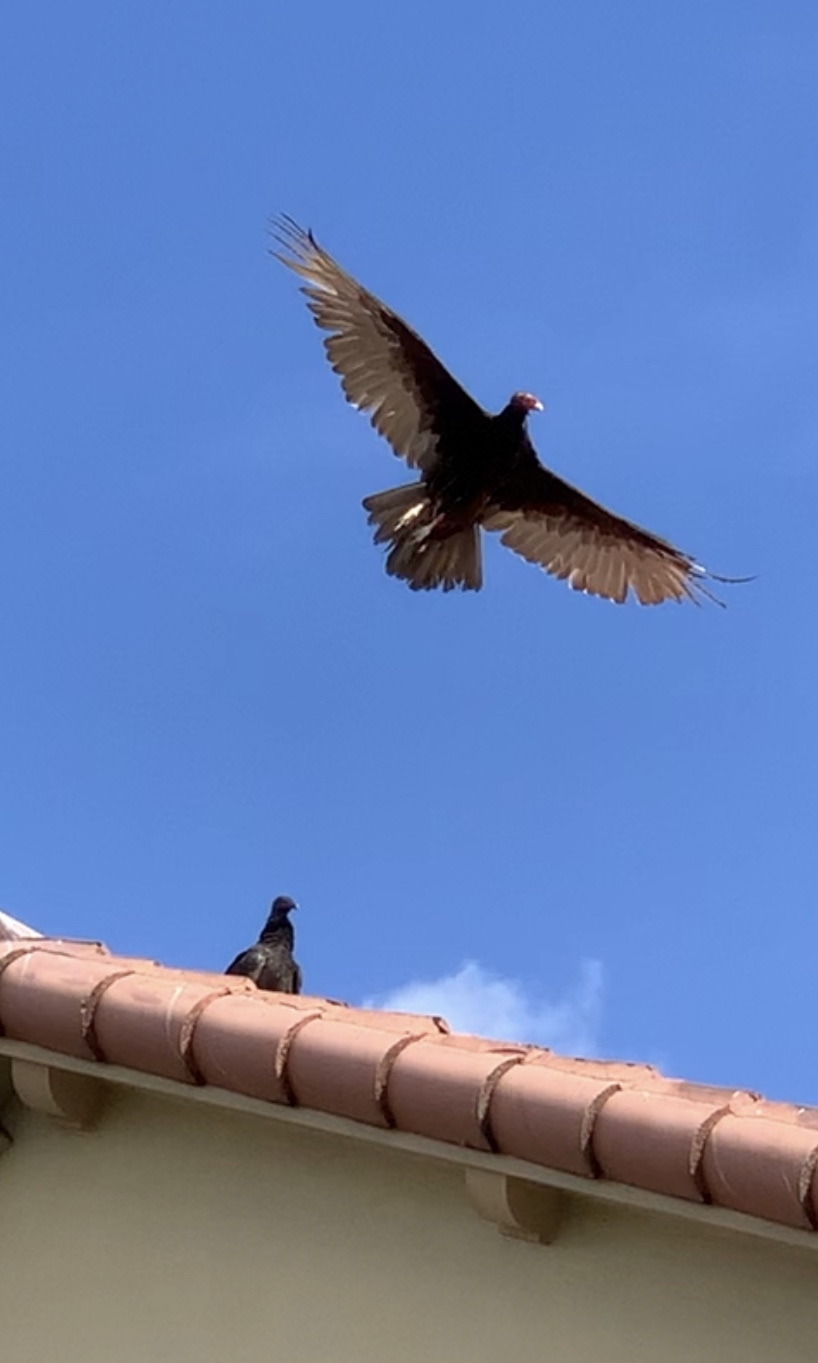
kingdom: Animalia
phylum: Chordata
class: Aves
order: Accipitriformes
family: Cathartidae
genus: Cathartes
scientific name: Cathartes aura
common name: Turkey vulture
